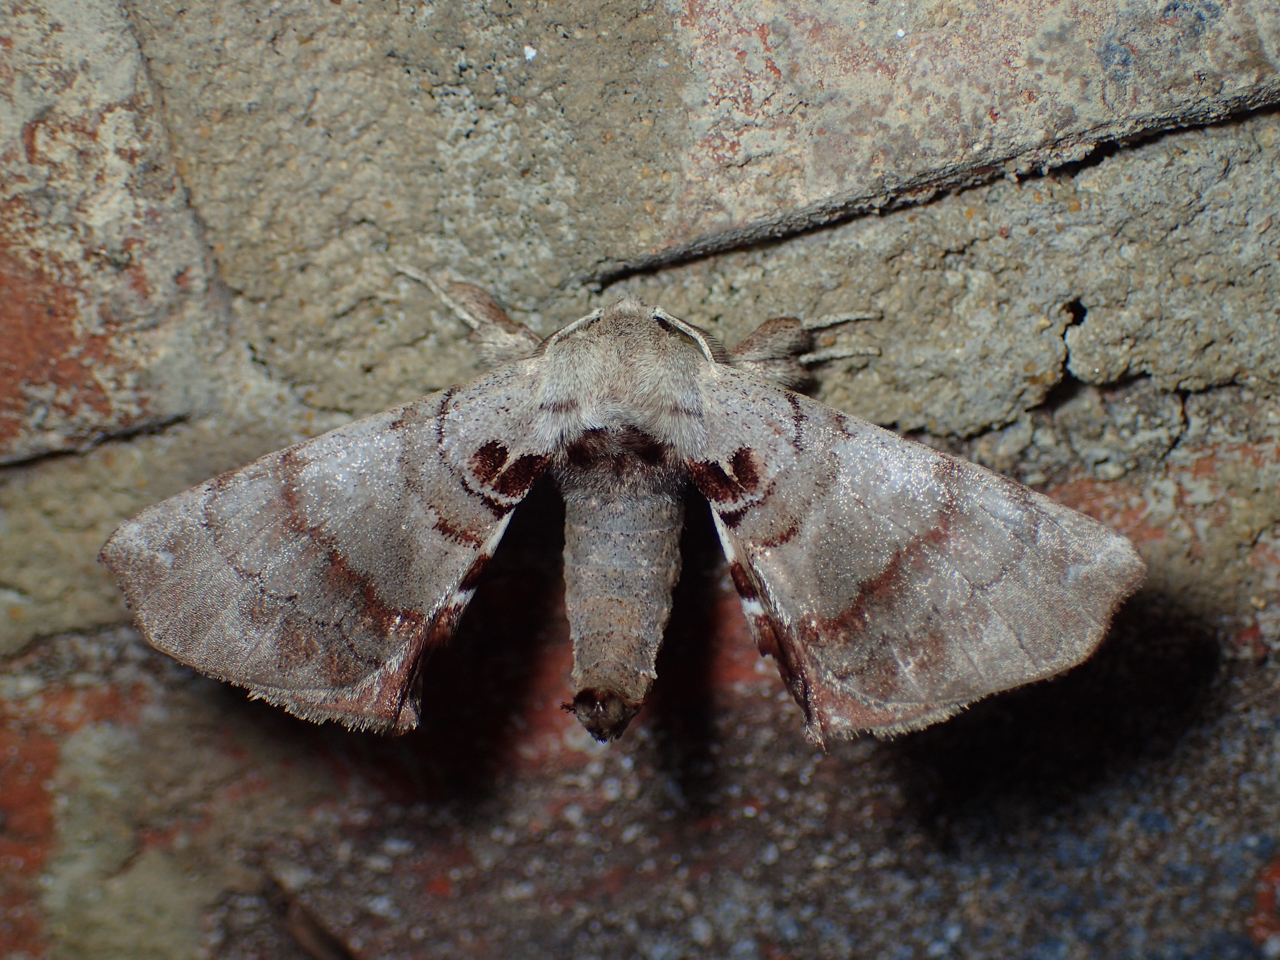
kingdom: Animalia
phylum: Arthropoda
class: Insecta
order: Lepidoptera
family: Apatelodidae
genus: Hygrochroa
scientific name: Hygrochroa Apatelodes torrefacta
